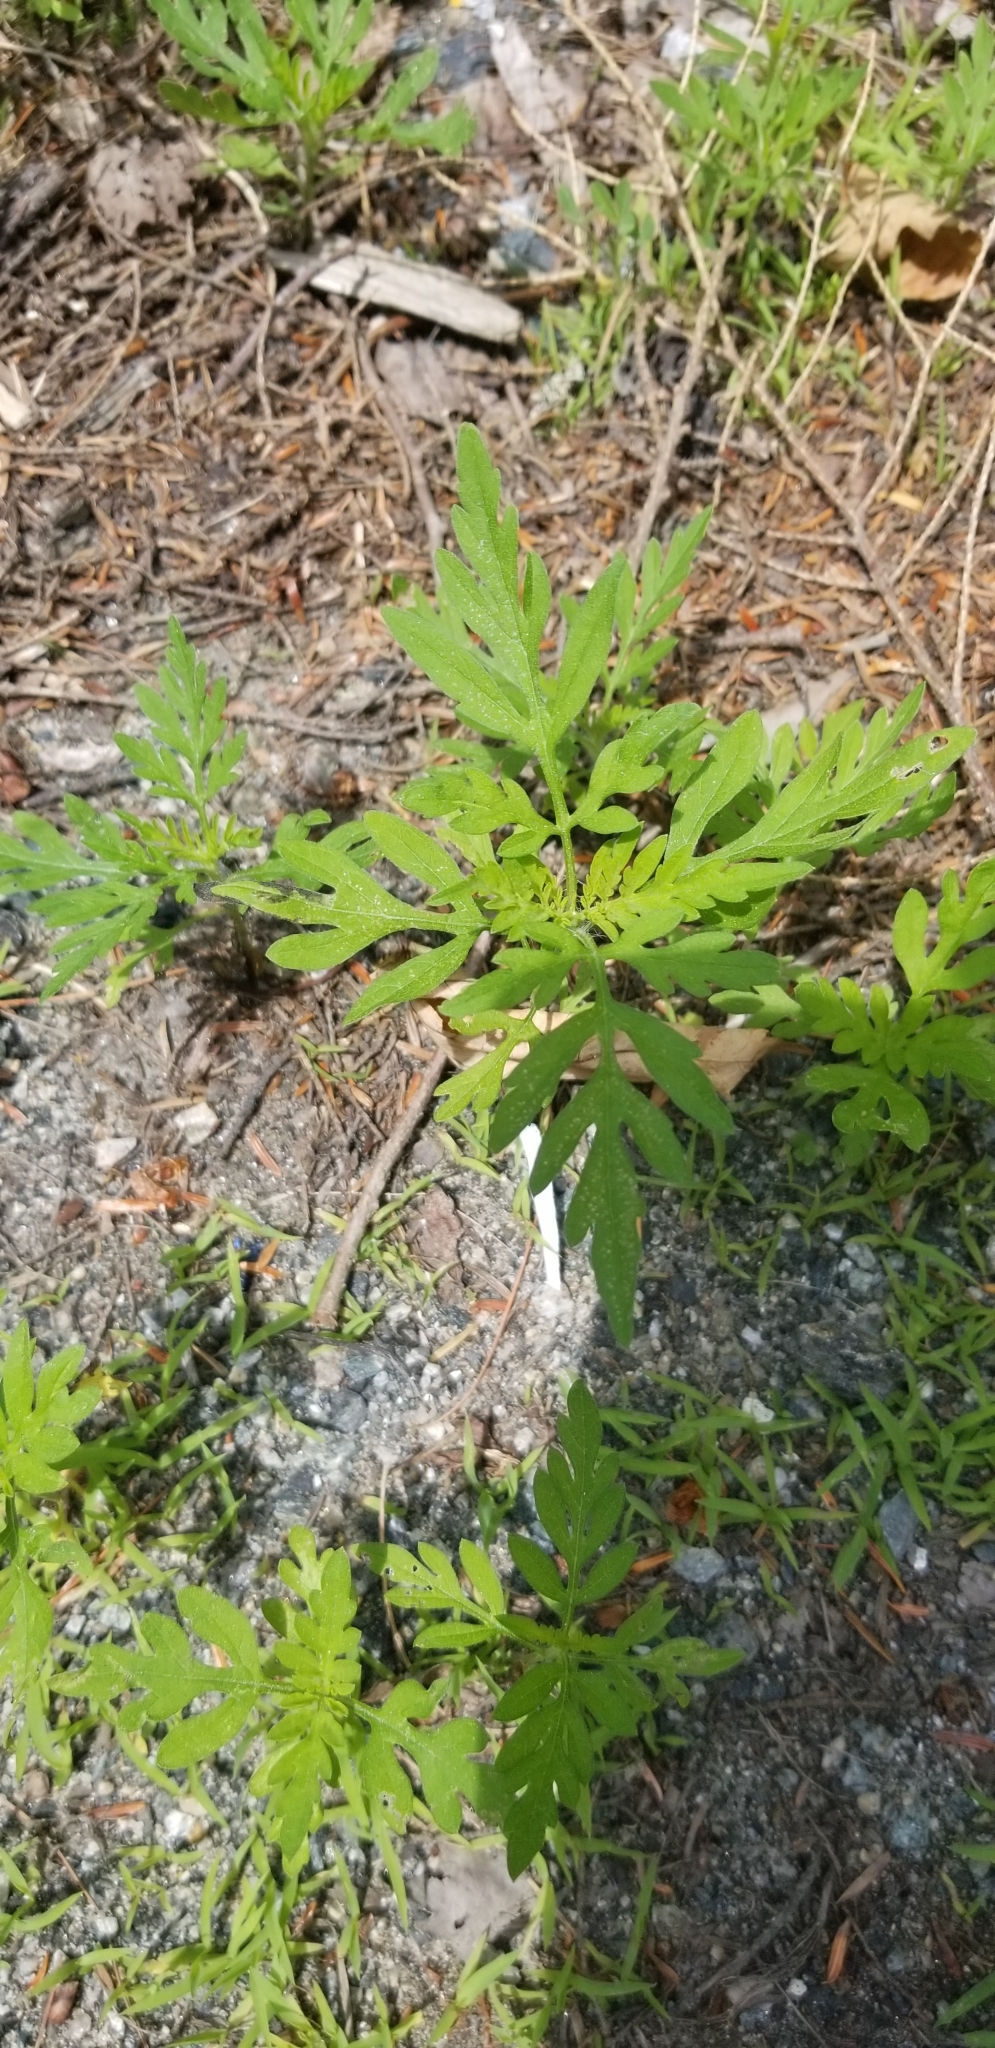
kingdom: Plantae
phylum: Tracheophyta
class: Magnoliopsida
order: Asterales
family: Asteraceae
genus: Ambrosia
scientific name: Ambrosia artemisiifolia
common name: Annual ragweed
